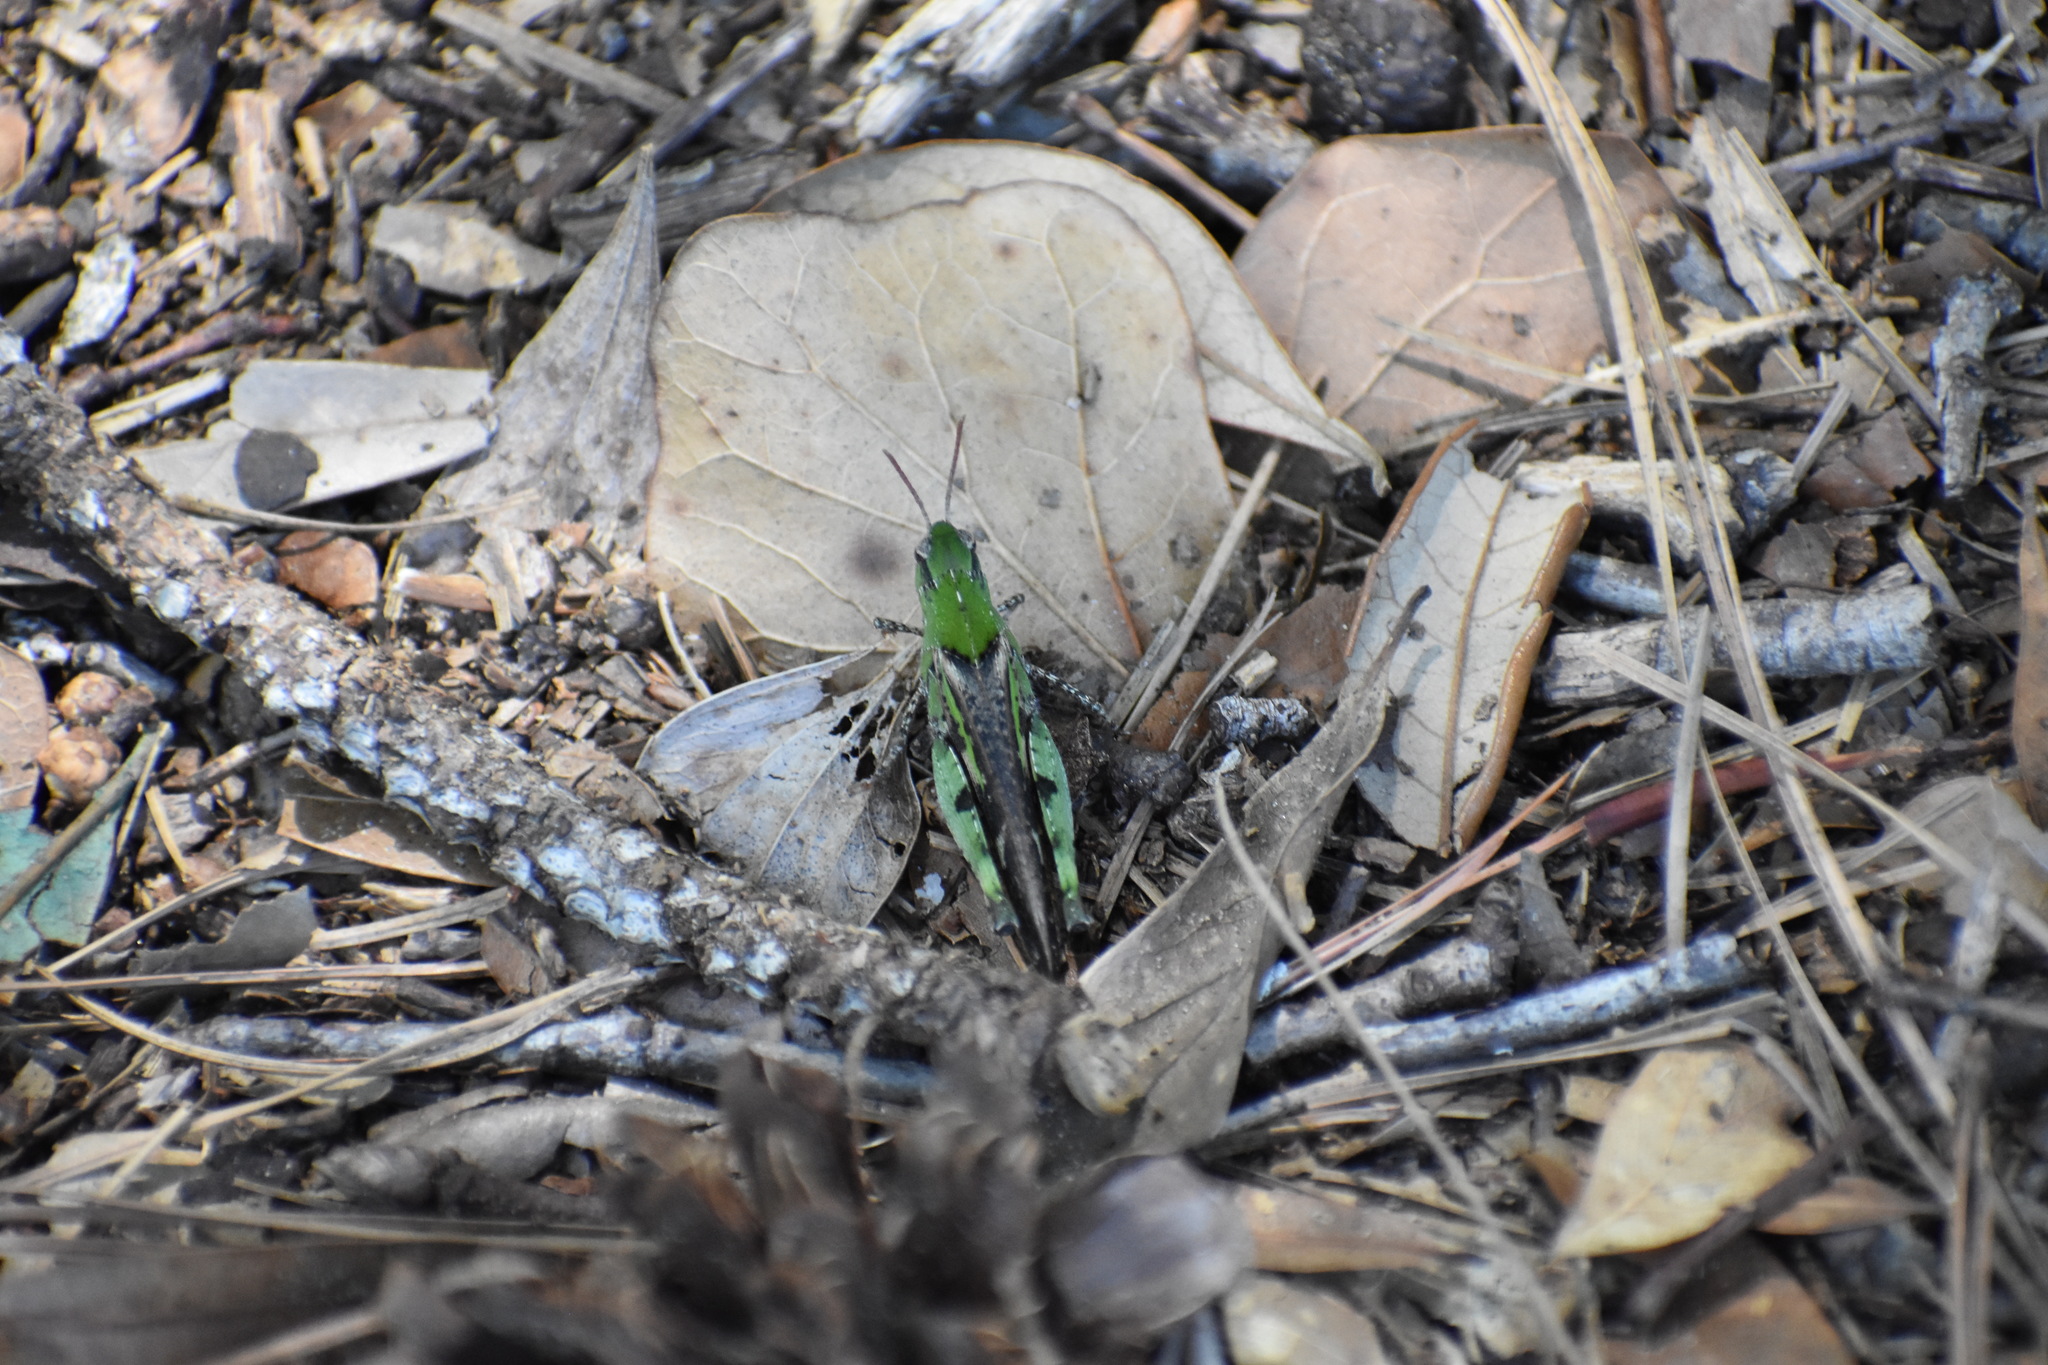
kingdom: Animalia
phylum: Arthropoda
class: Insecta
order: Orthoptera
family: Acrididae
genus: Chortophaga
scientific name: Chortophaga viridifasciata
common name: Green-striped grasshopper
